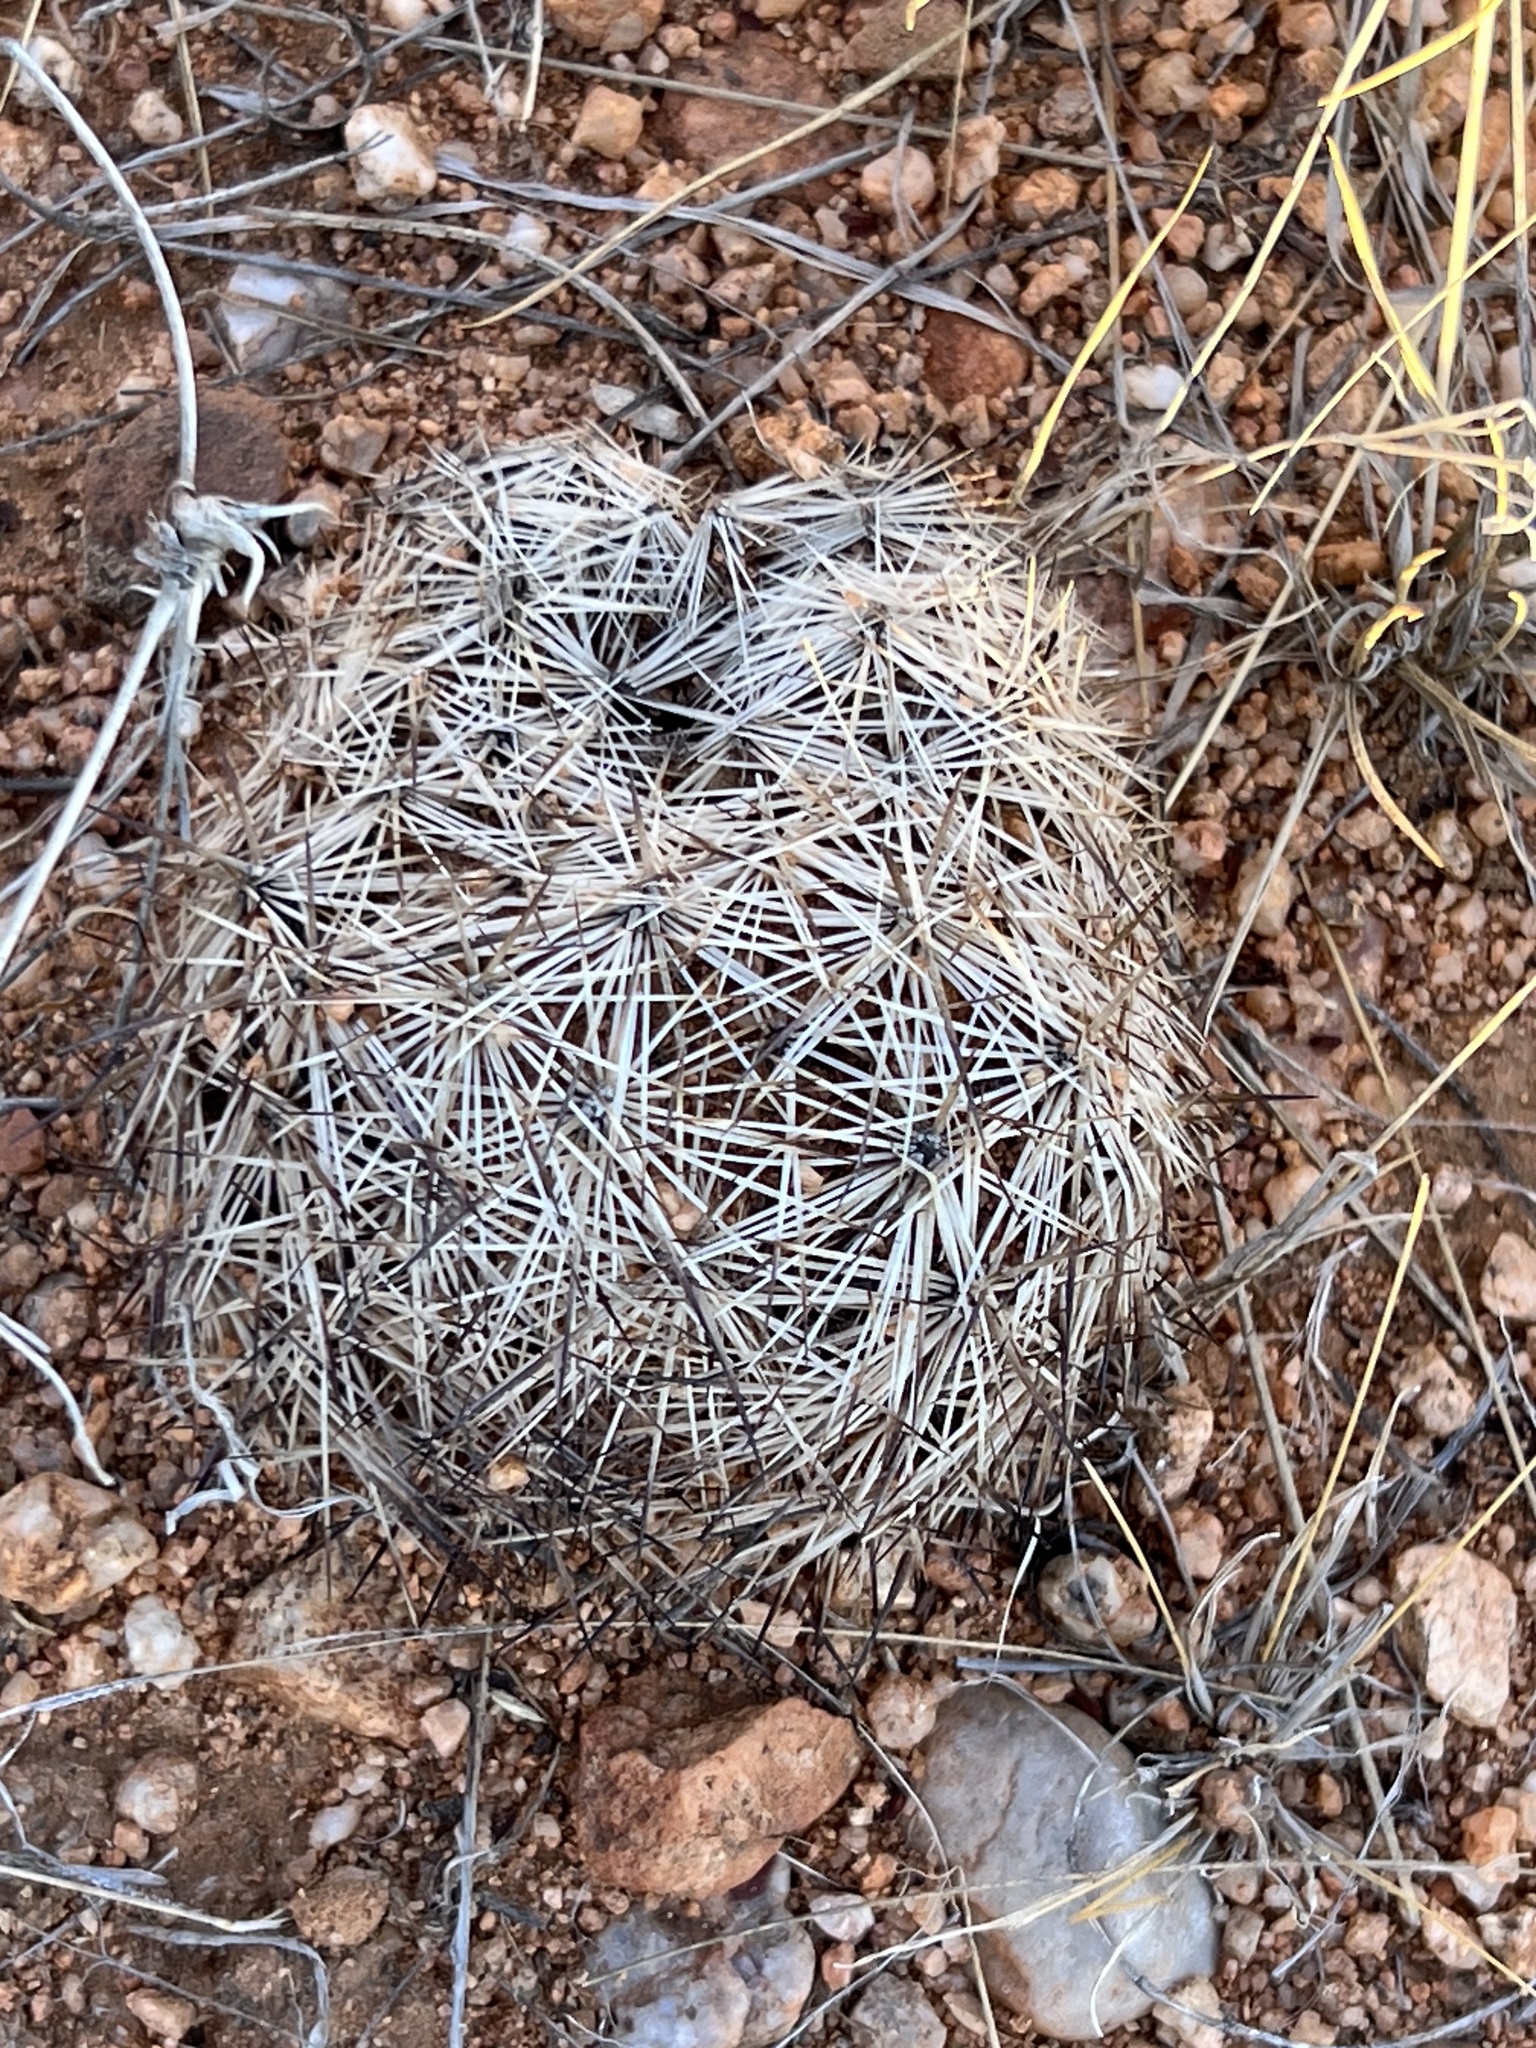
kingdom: Plantae
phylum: Tracheophyta
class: Magnoliopsida
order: Caryophyllales
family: Cactaceae
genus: Pelecyphora
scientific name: Pelecyphora vivipara
